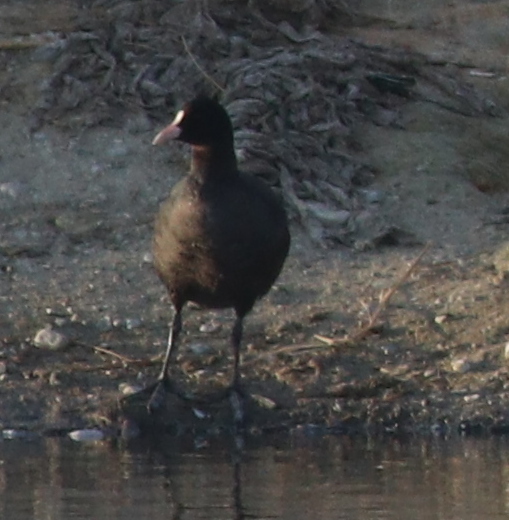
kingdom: Animalia
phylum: Chordata
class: Aves
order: Gruiformes
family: Rallidae
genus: Fulica
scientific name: Fulica atra
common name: Eurasian coot
